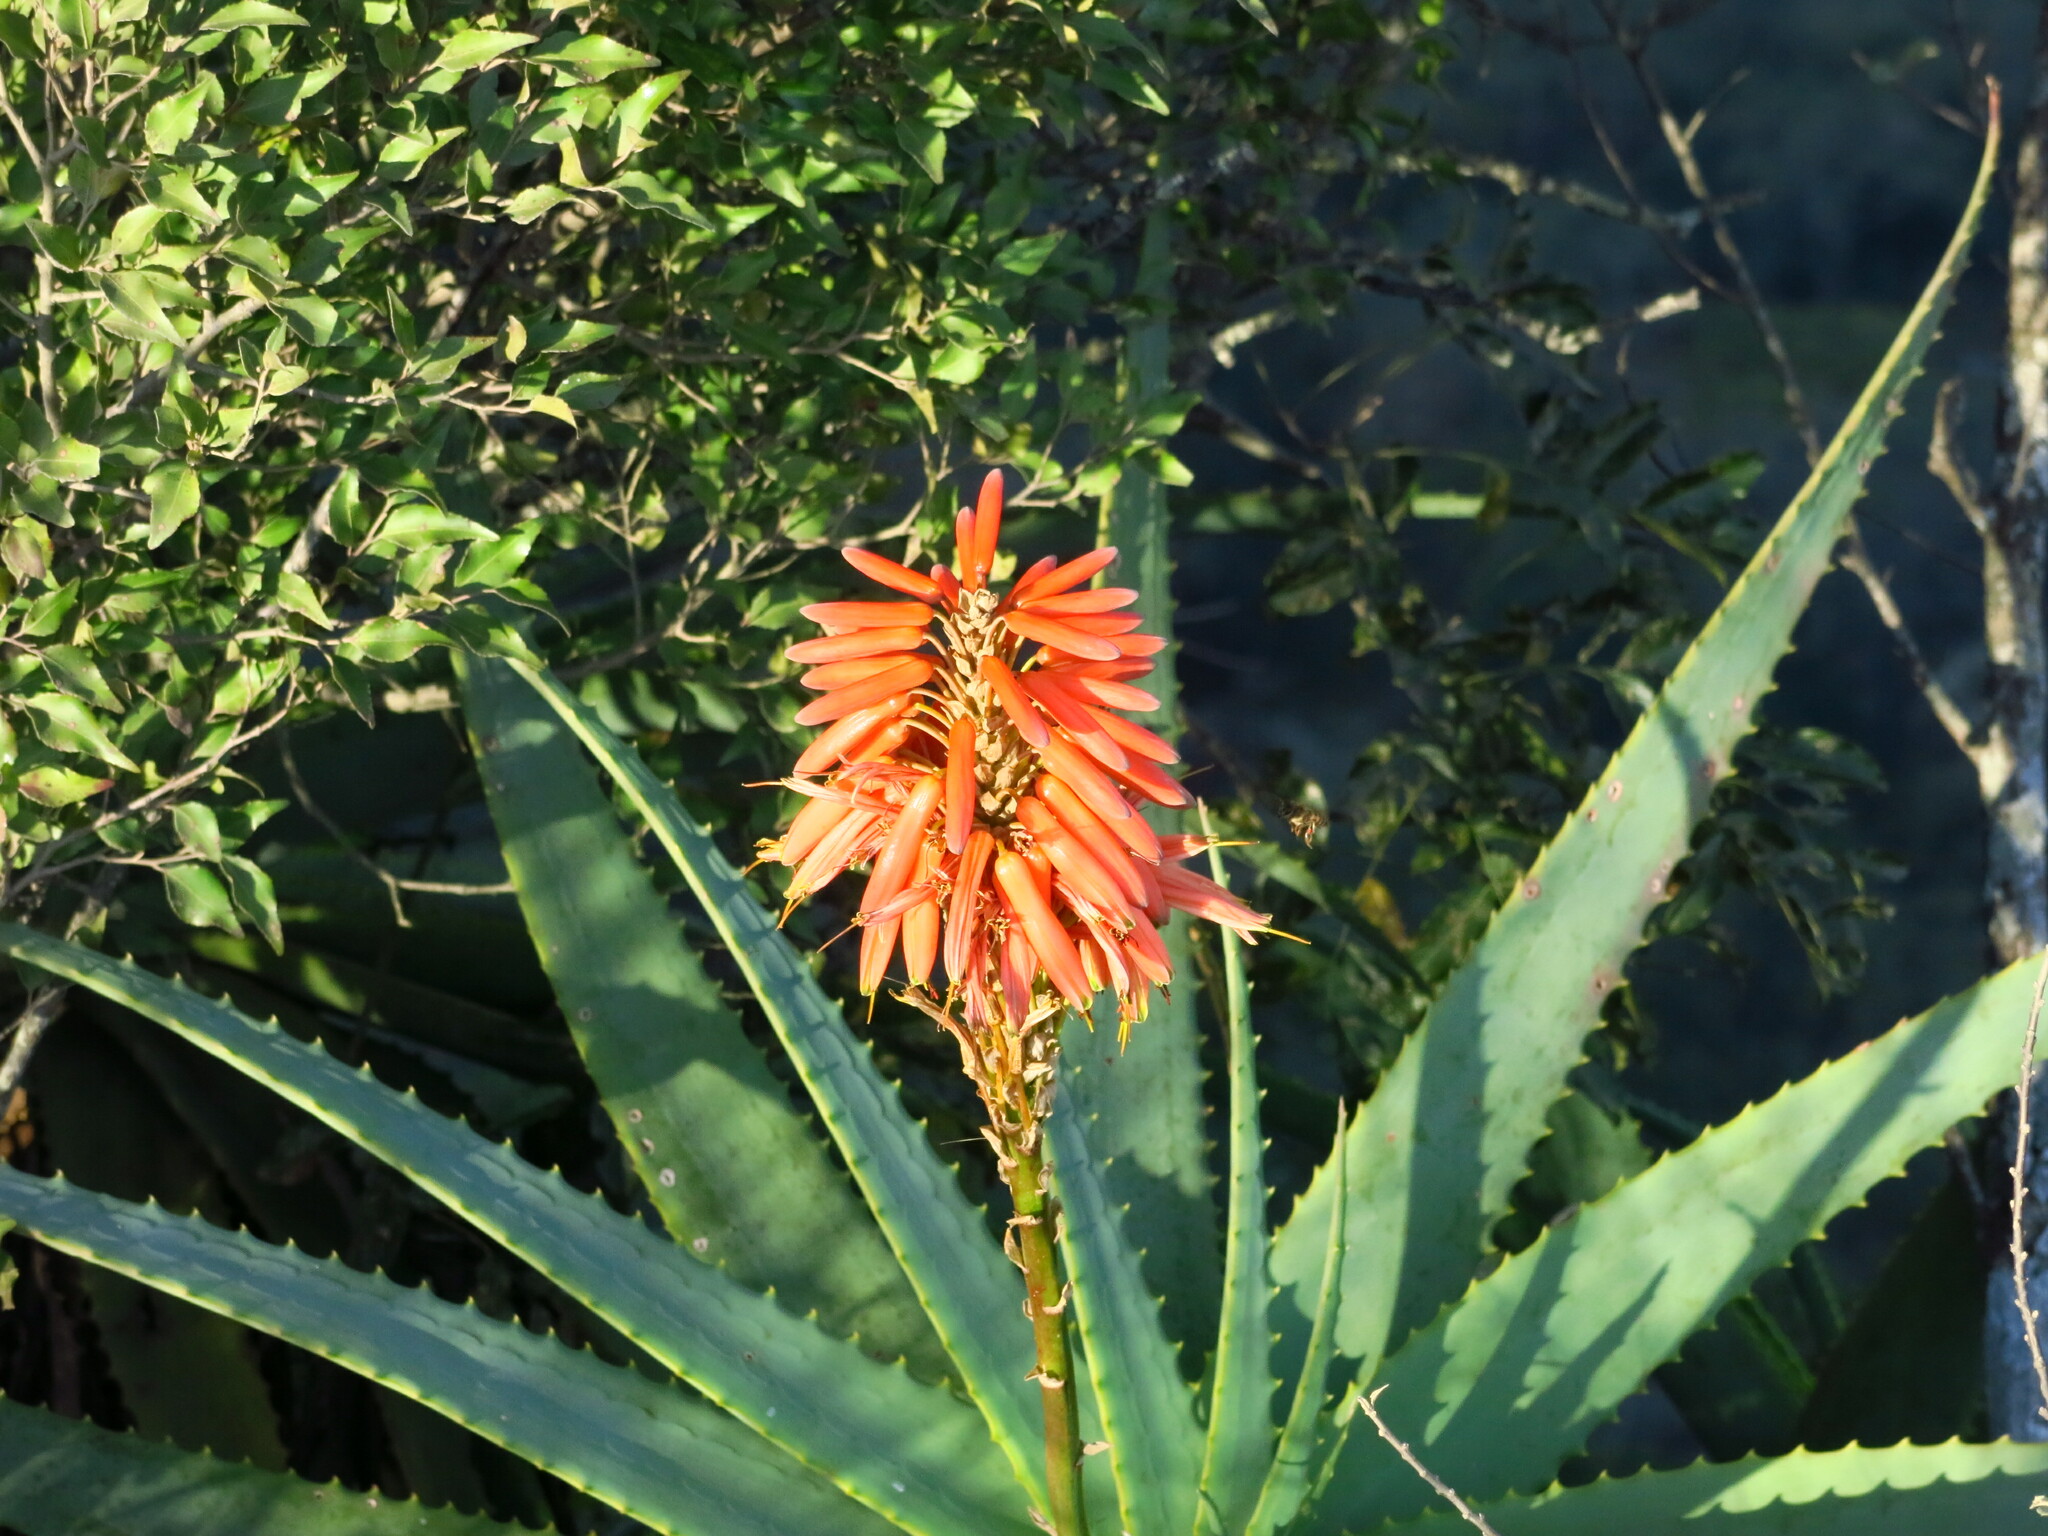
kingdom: Plantae
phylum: Tracheophyta
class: Liliopsida
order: Asparagales
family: Asphodelaceae
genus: Aloe
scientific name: Aloe arborescens
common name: Candelabra aloe
